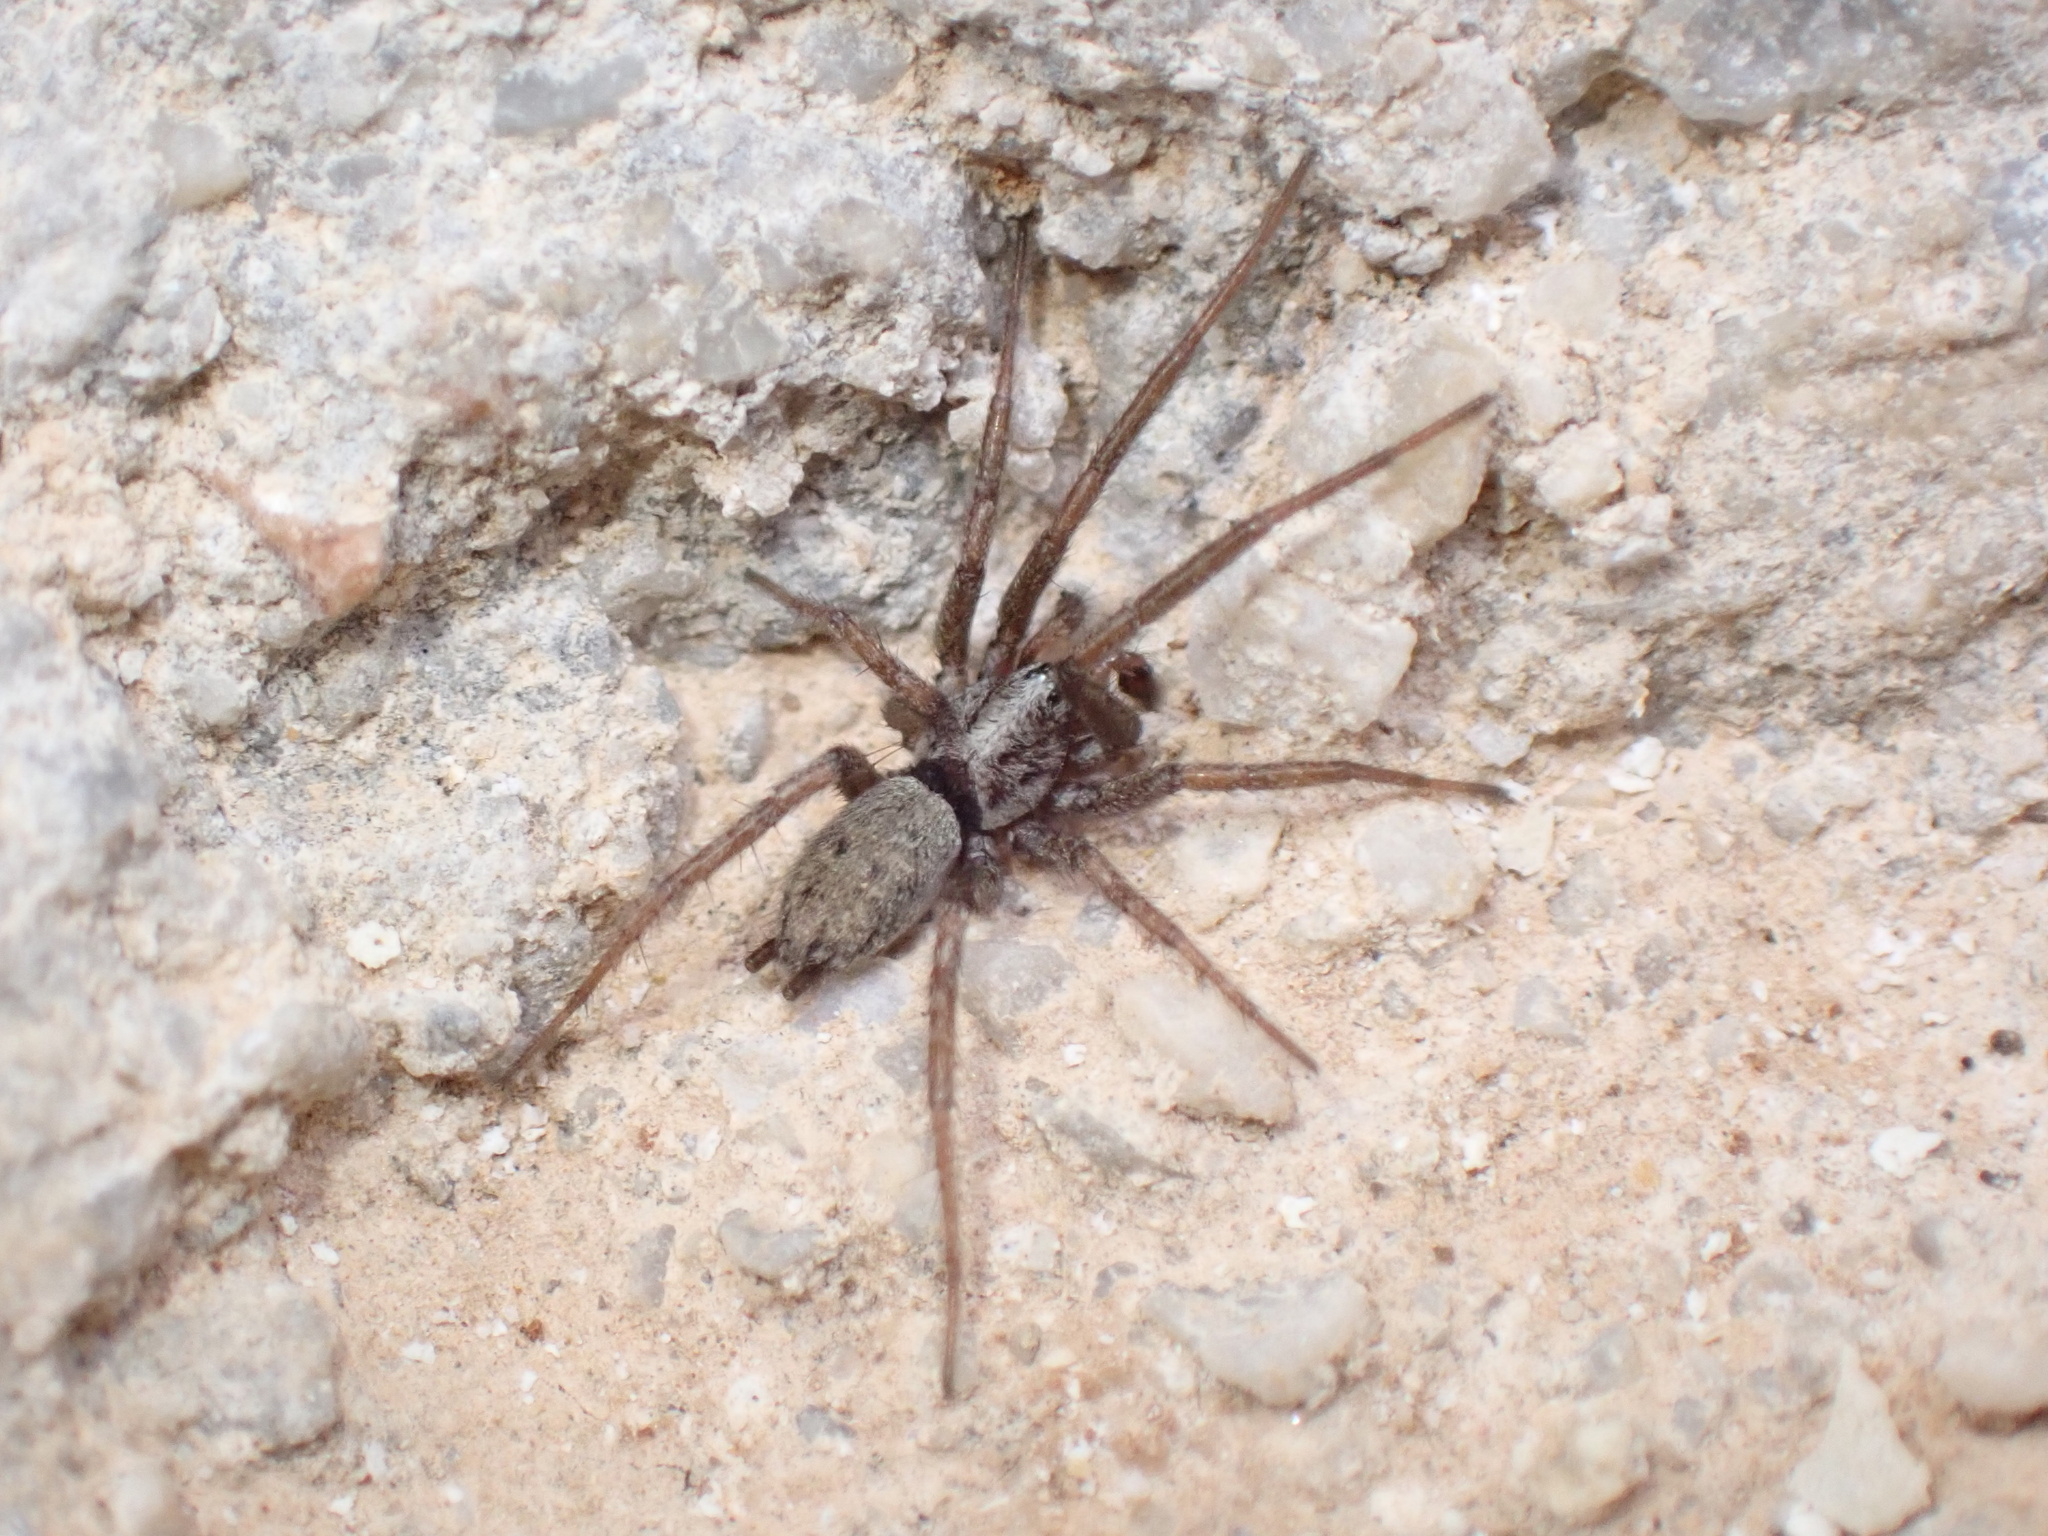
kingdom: Animalia
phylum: Arthropoda
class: Arachnida
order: Araneae
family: Gnaphosidae
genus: Nomisia
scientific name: Nomisia
